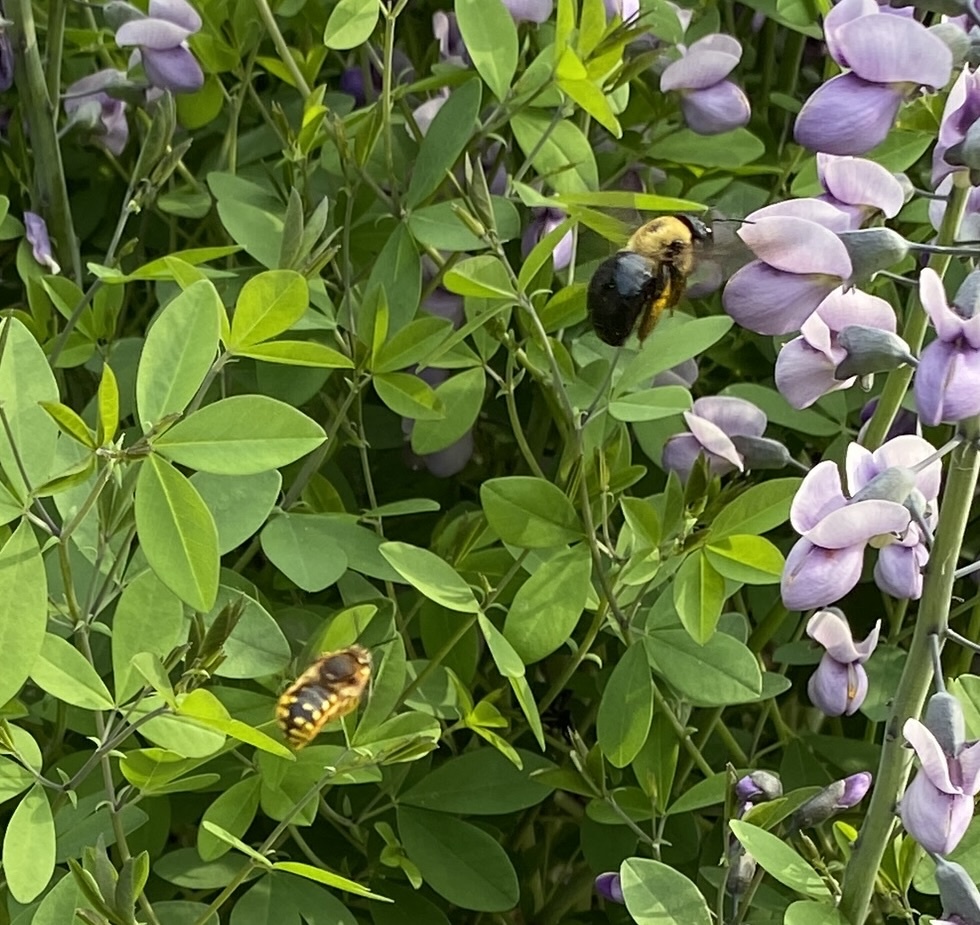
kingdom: Animalia
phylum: Arthropoda
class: Insecta
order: Hymenoptera
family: Megachilidae
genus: Anthidium
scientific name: Anthidium manicatum
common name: Wool carder bee
